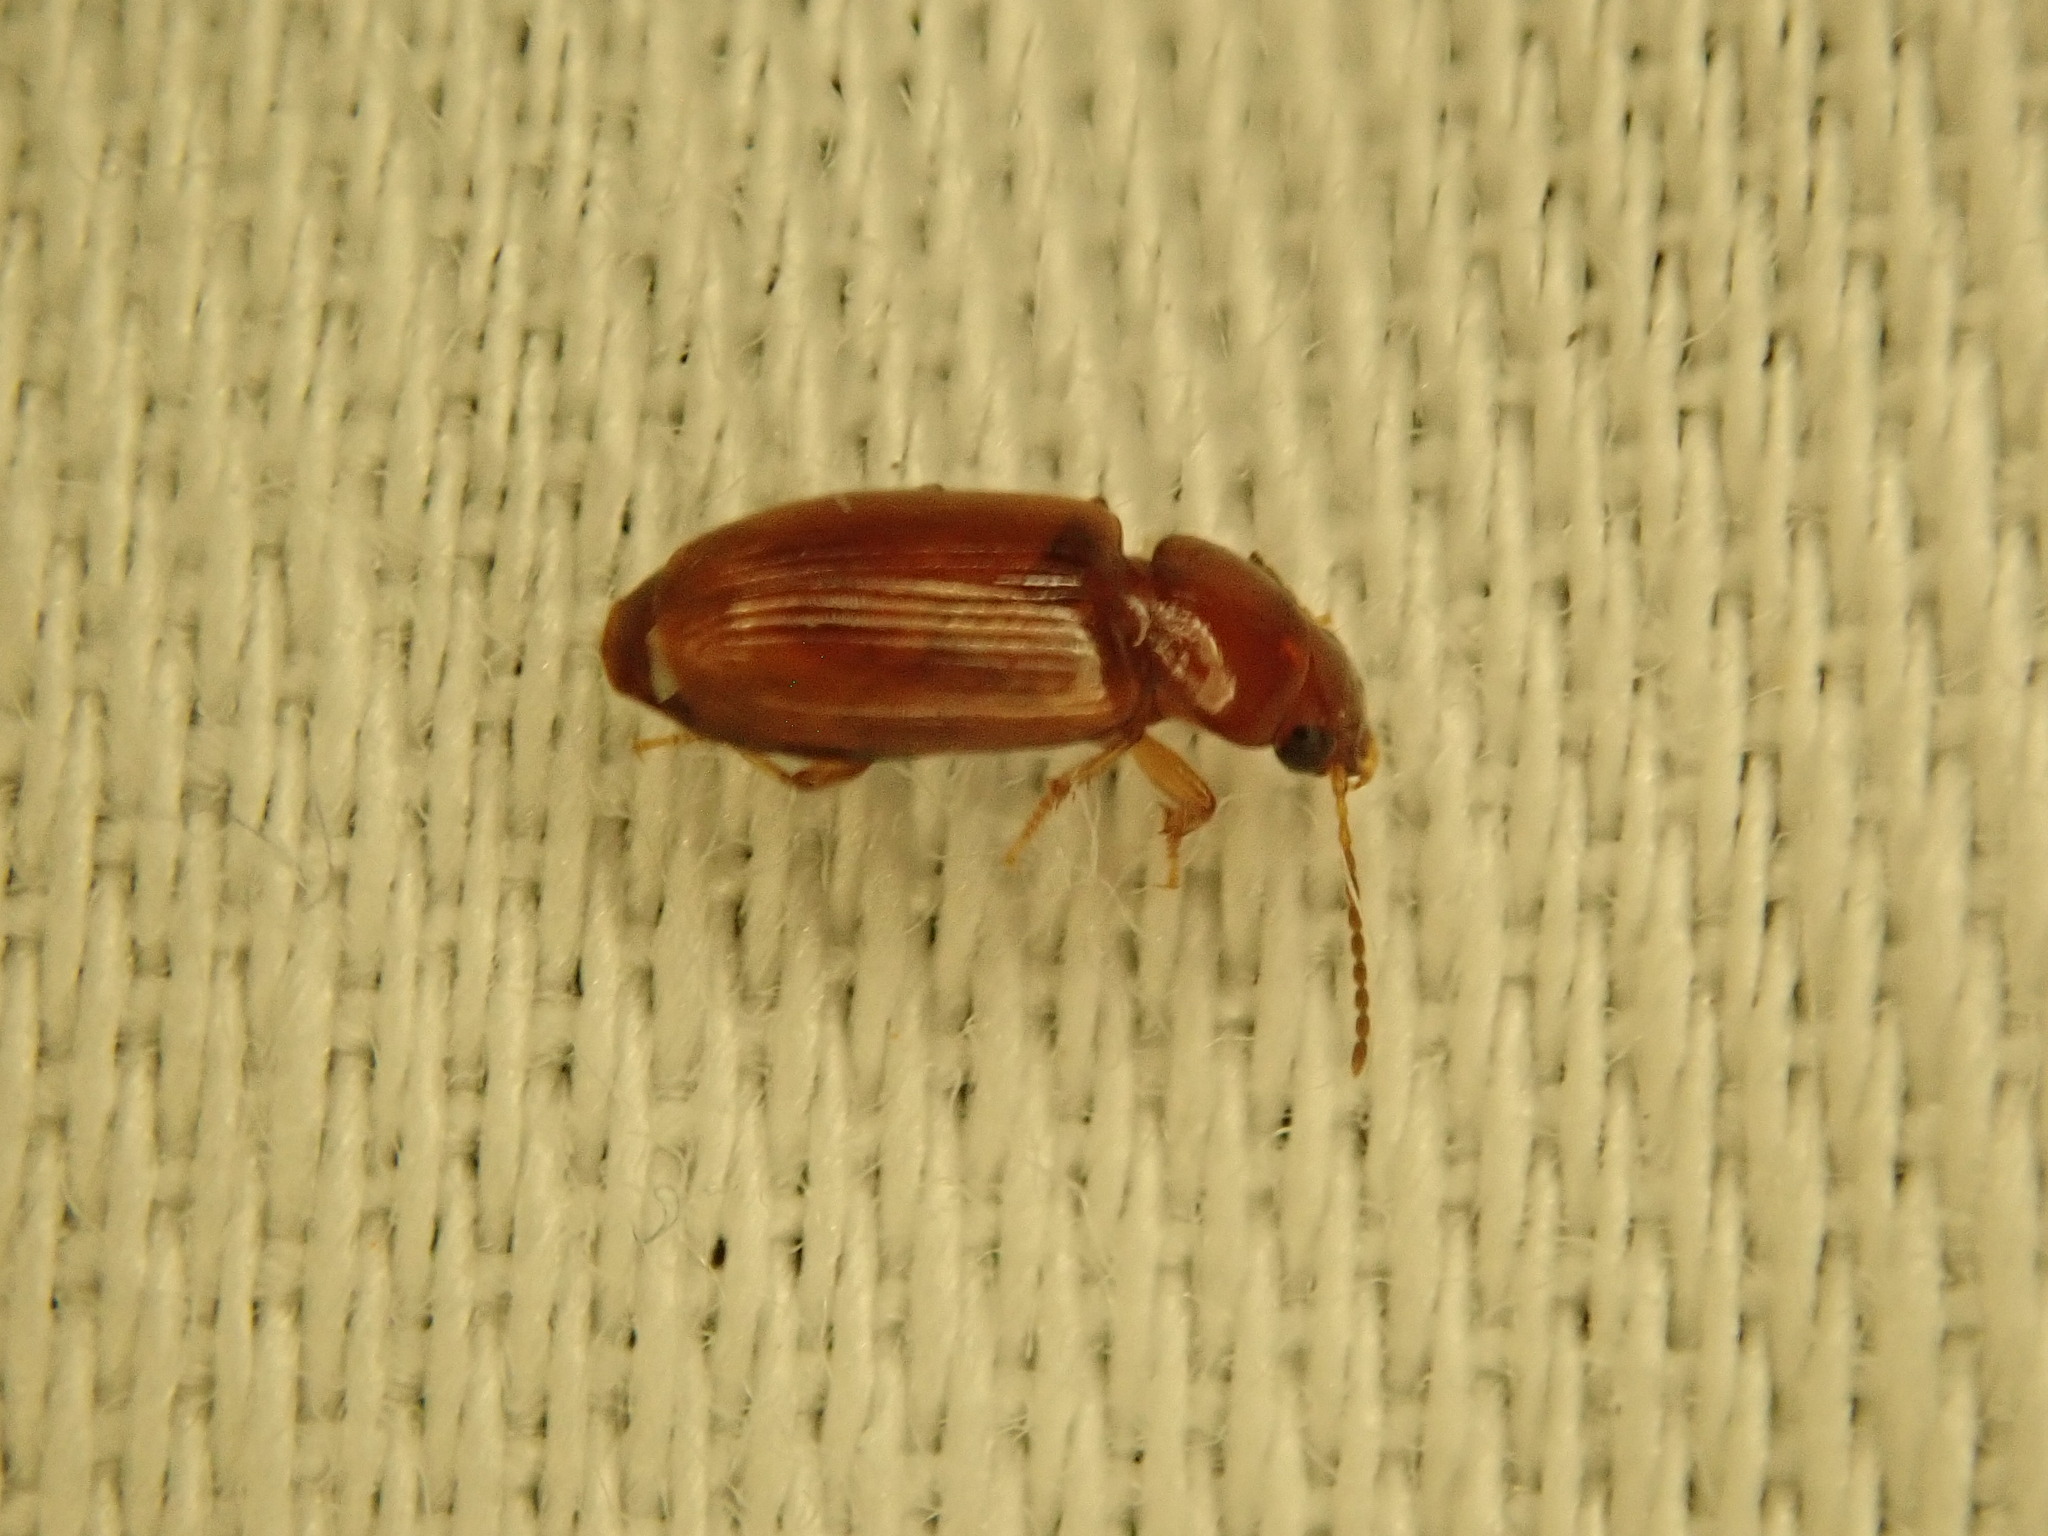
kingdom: Animalia
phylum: Arthropoda
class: Insecta
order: Coleoptera
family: Carabidae
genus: Acupalpus
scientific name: Acupalpus testaceus
